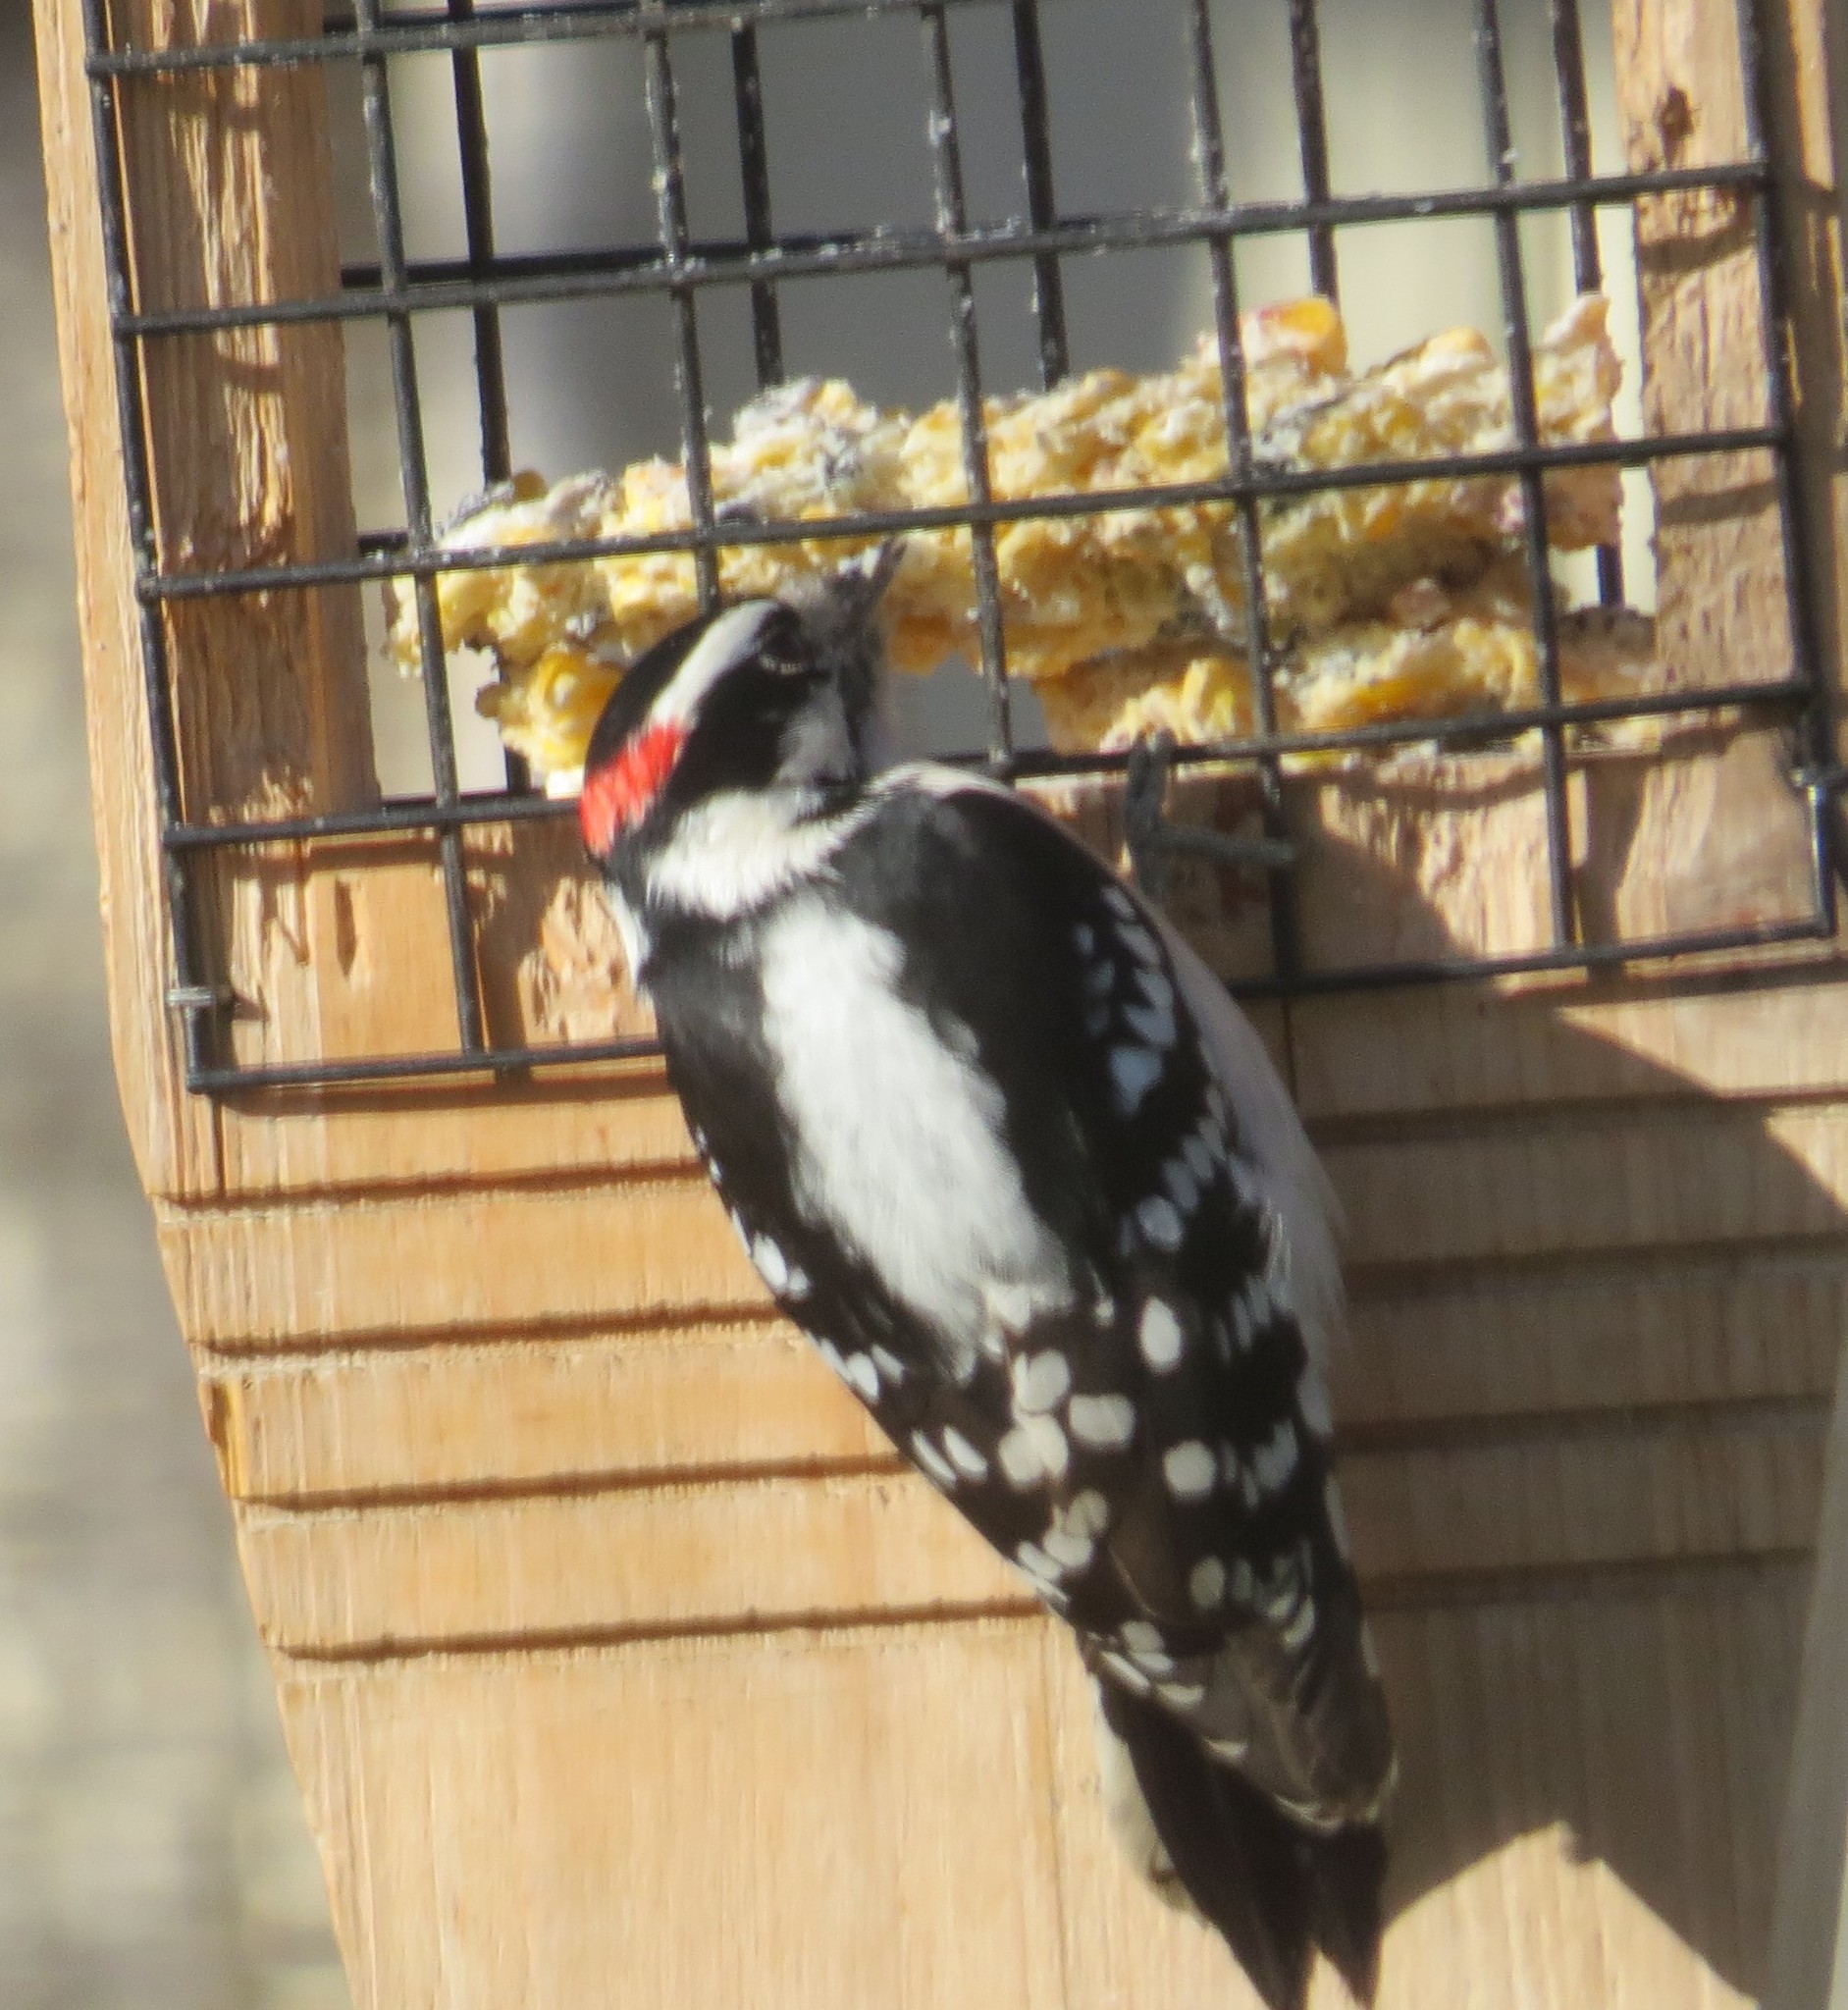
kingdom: Animalia
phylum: Chordata
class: Aves
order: Piciformes
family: Picidae
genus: Dryobates
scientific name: Dryobates pubescens
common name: Downy woodpecker
